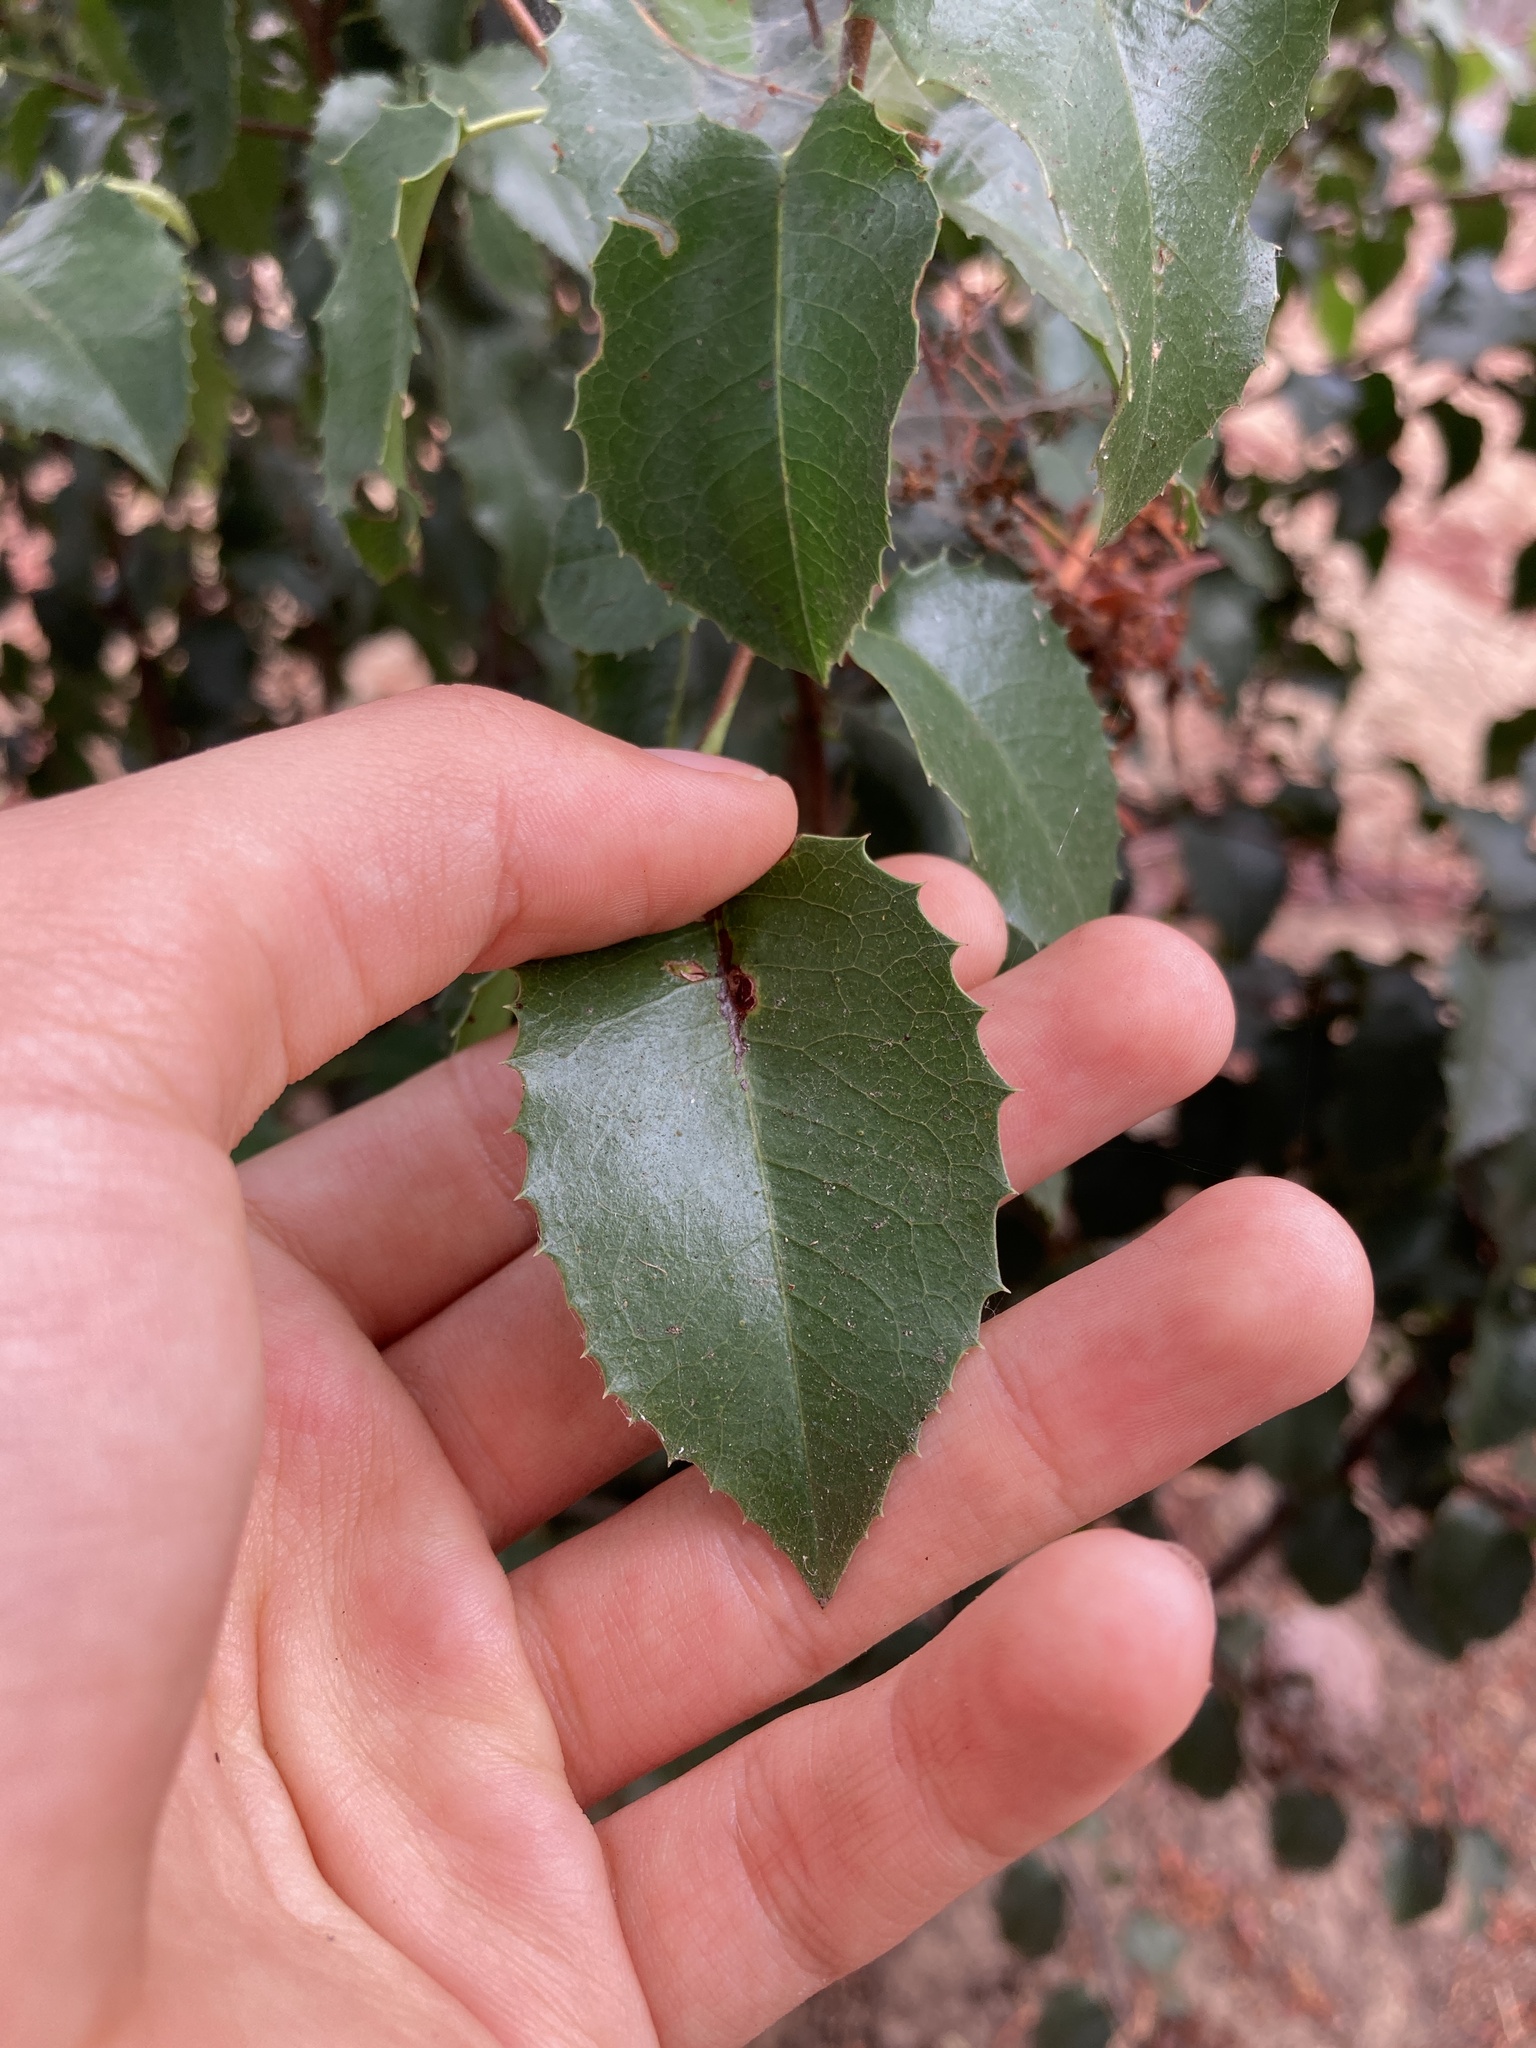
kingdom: Plantae
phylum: Tracheophyta
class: Magnoliopsida
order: Rosales
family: Rosaceae
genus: Prunus
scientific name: Prunus ilicifolia
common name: Hollyleaf cherry
